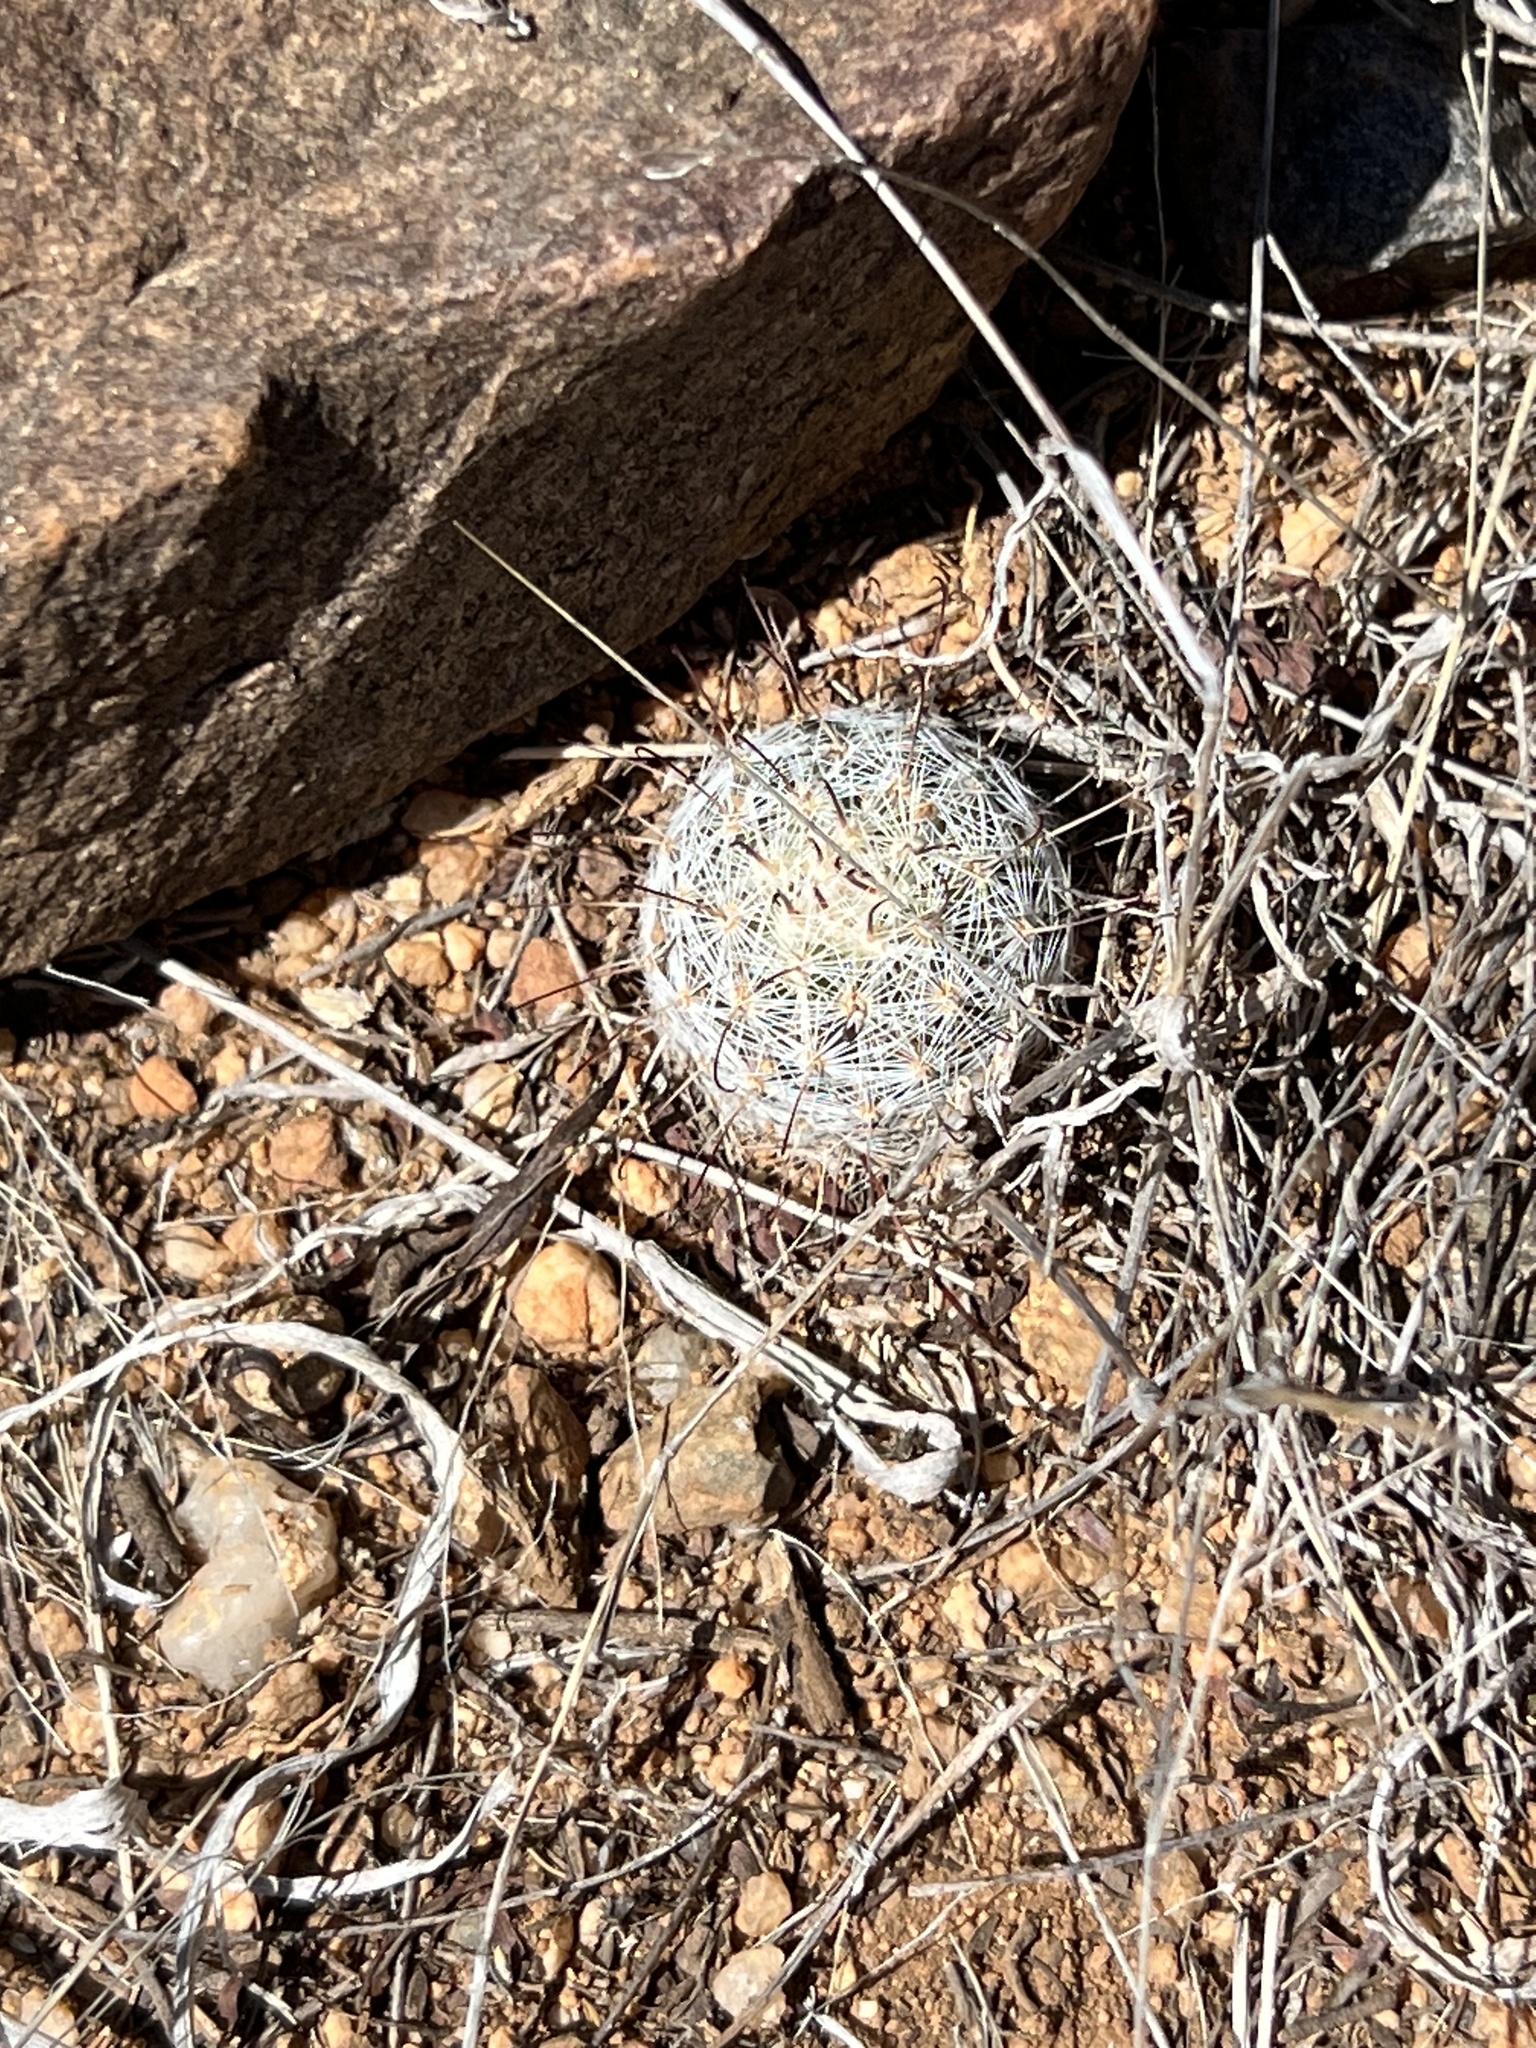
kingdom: Plantae
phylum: Tracheophyta
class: Magnoliopsida
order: Caryophyllales
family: Cactaceae
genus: Cochemiea
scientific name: Cochemiea grahamii
